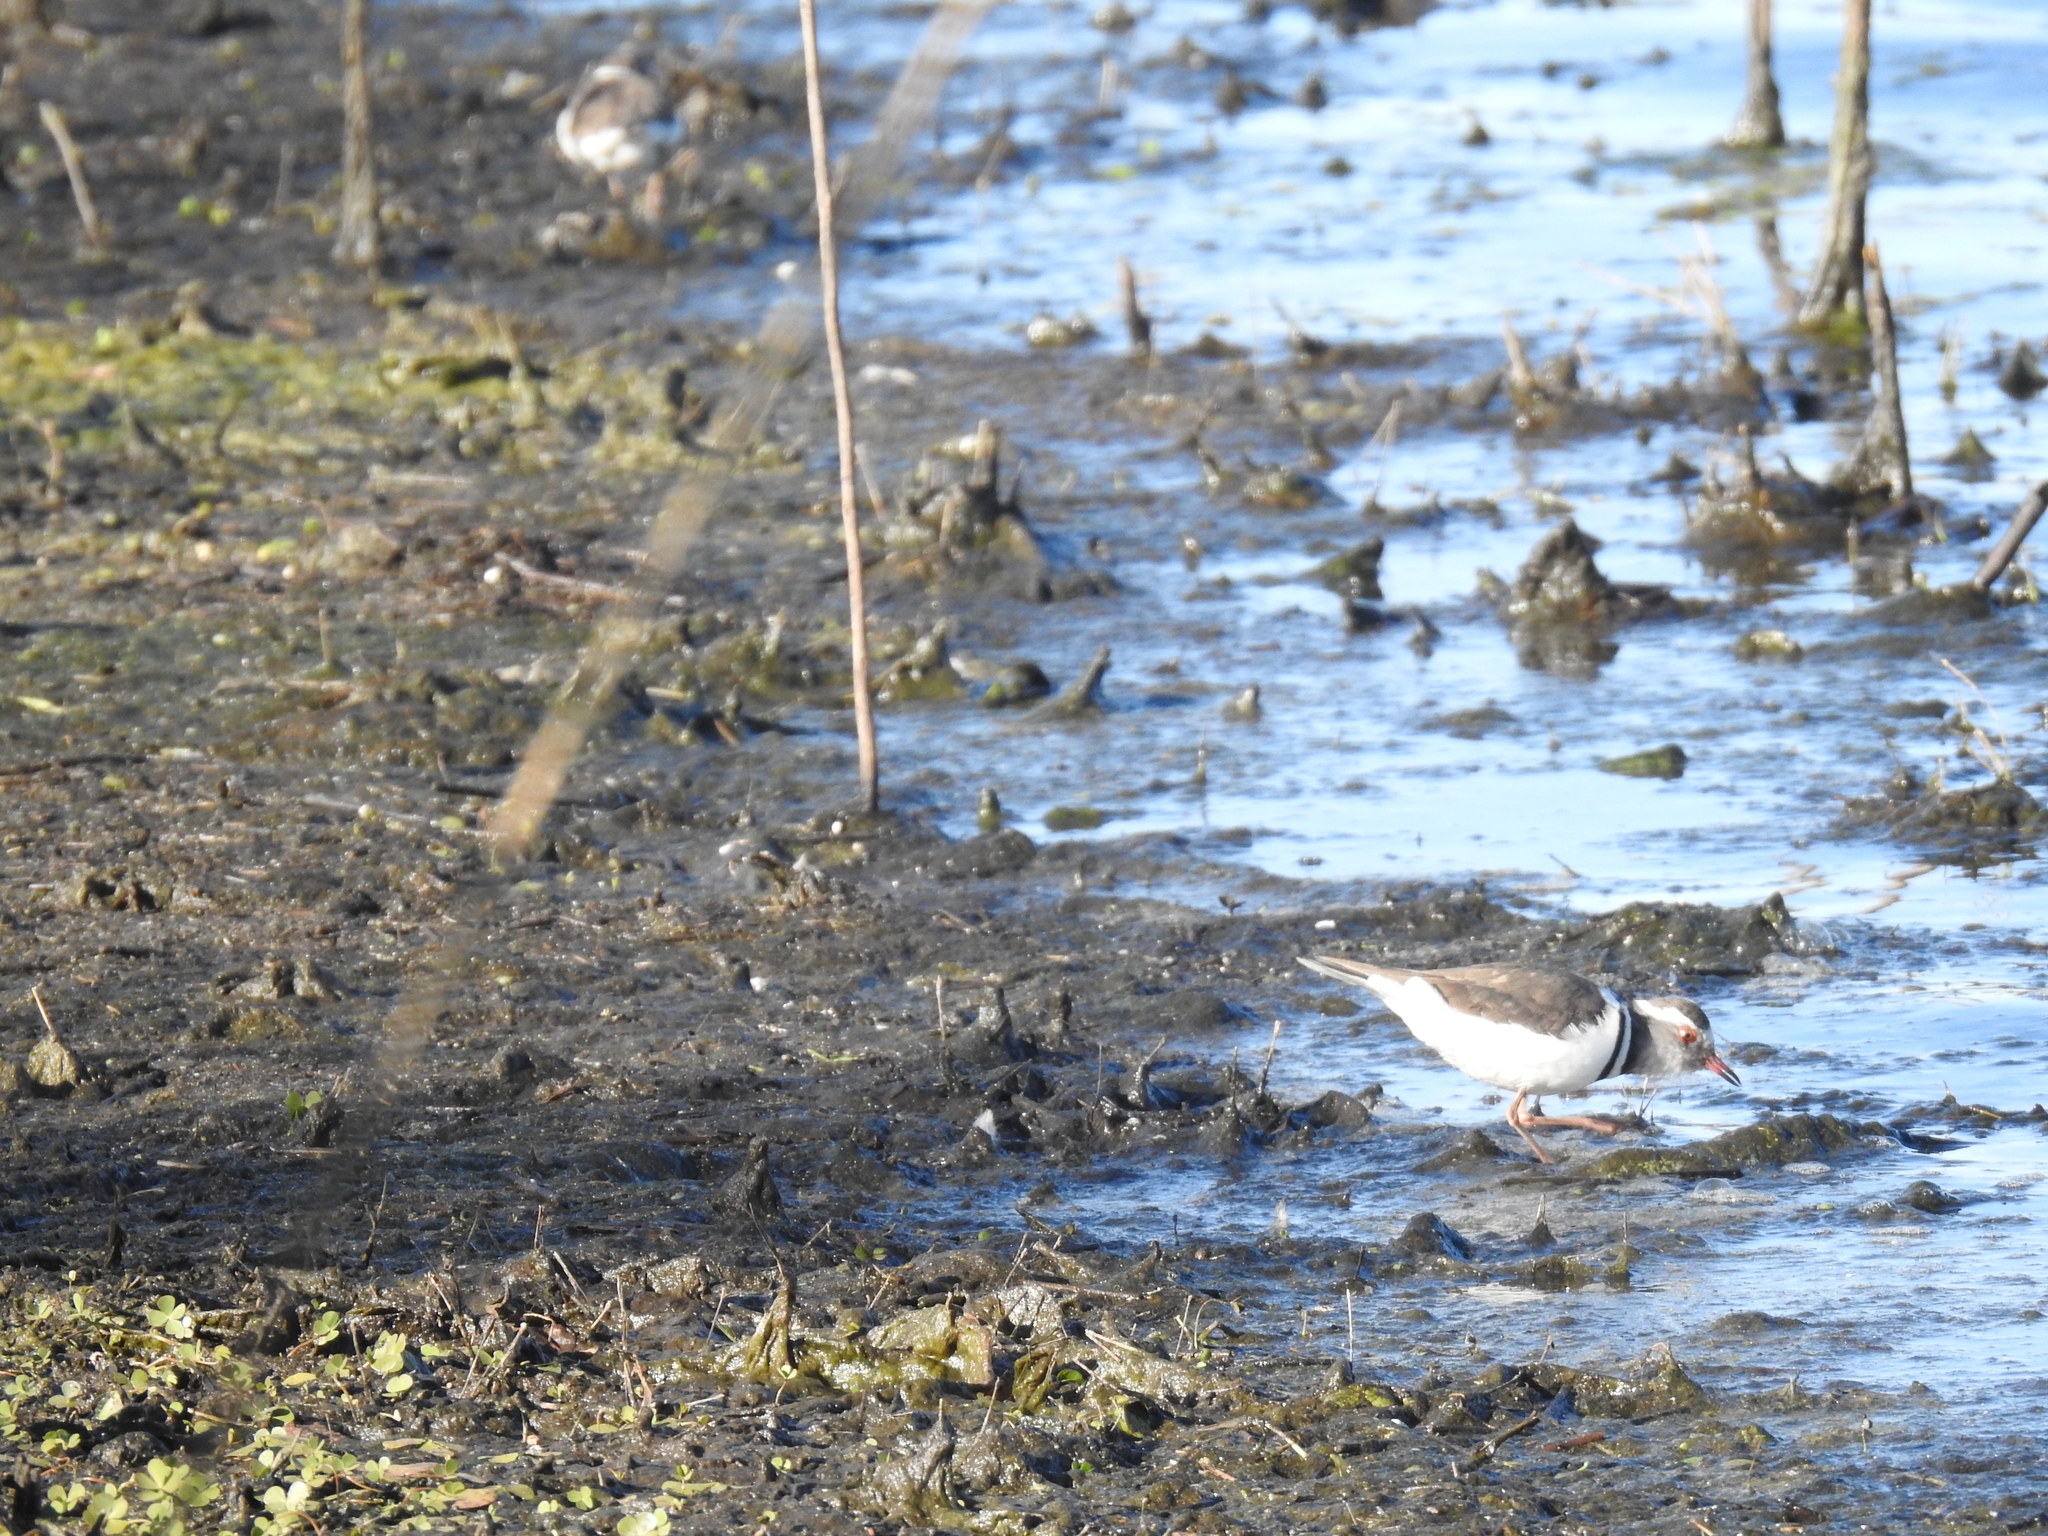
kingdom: Animalia
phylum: Chordata
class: Aves
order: Charadriiformes
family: Charadriidae
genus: Charadrius
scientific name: Charadrius tricollaris
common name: Three-banded plover
